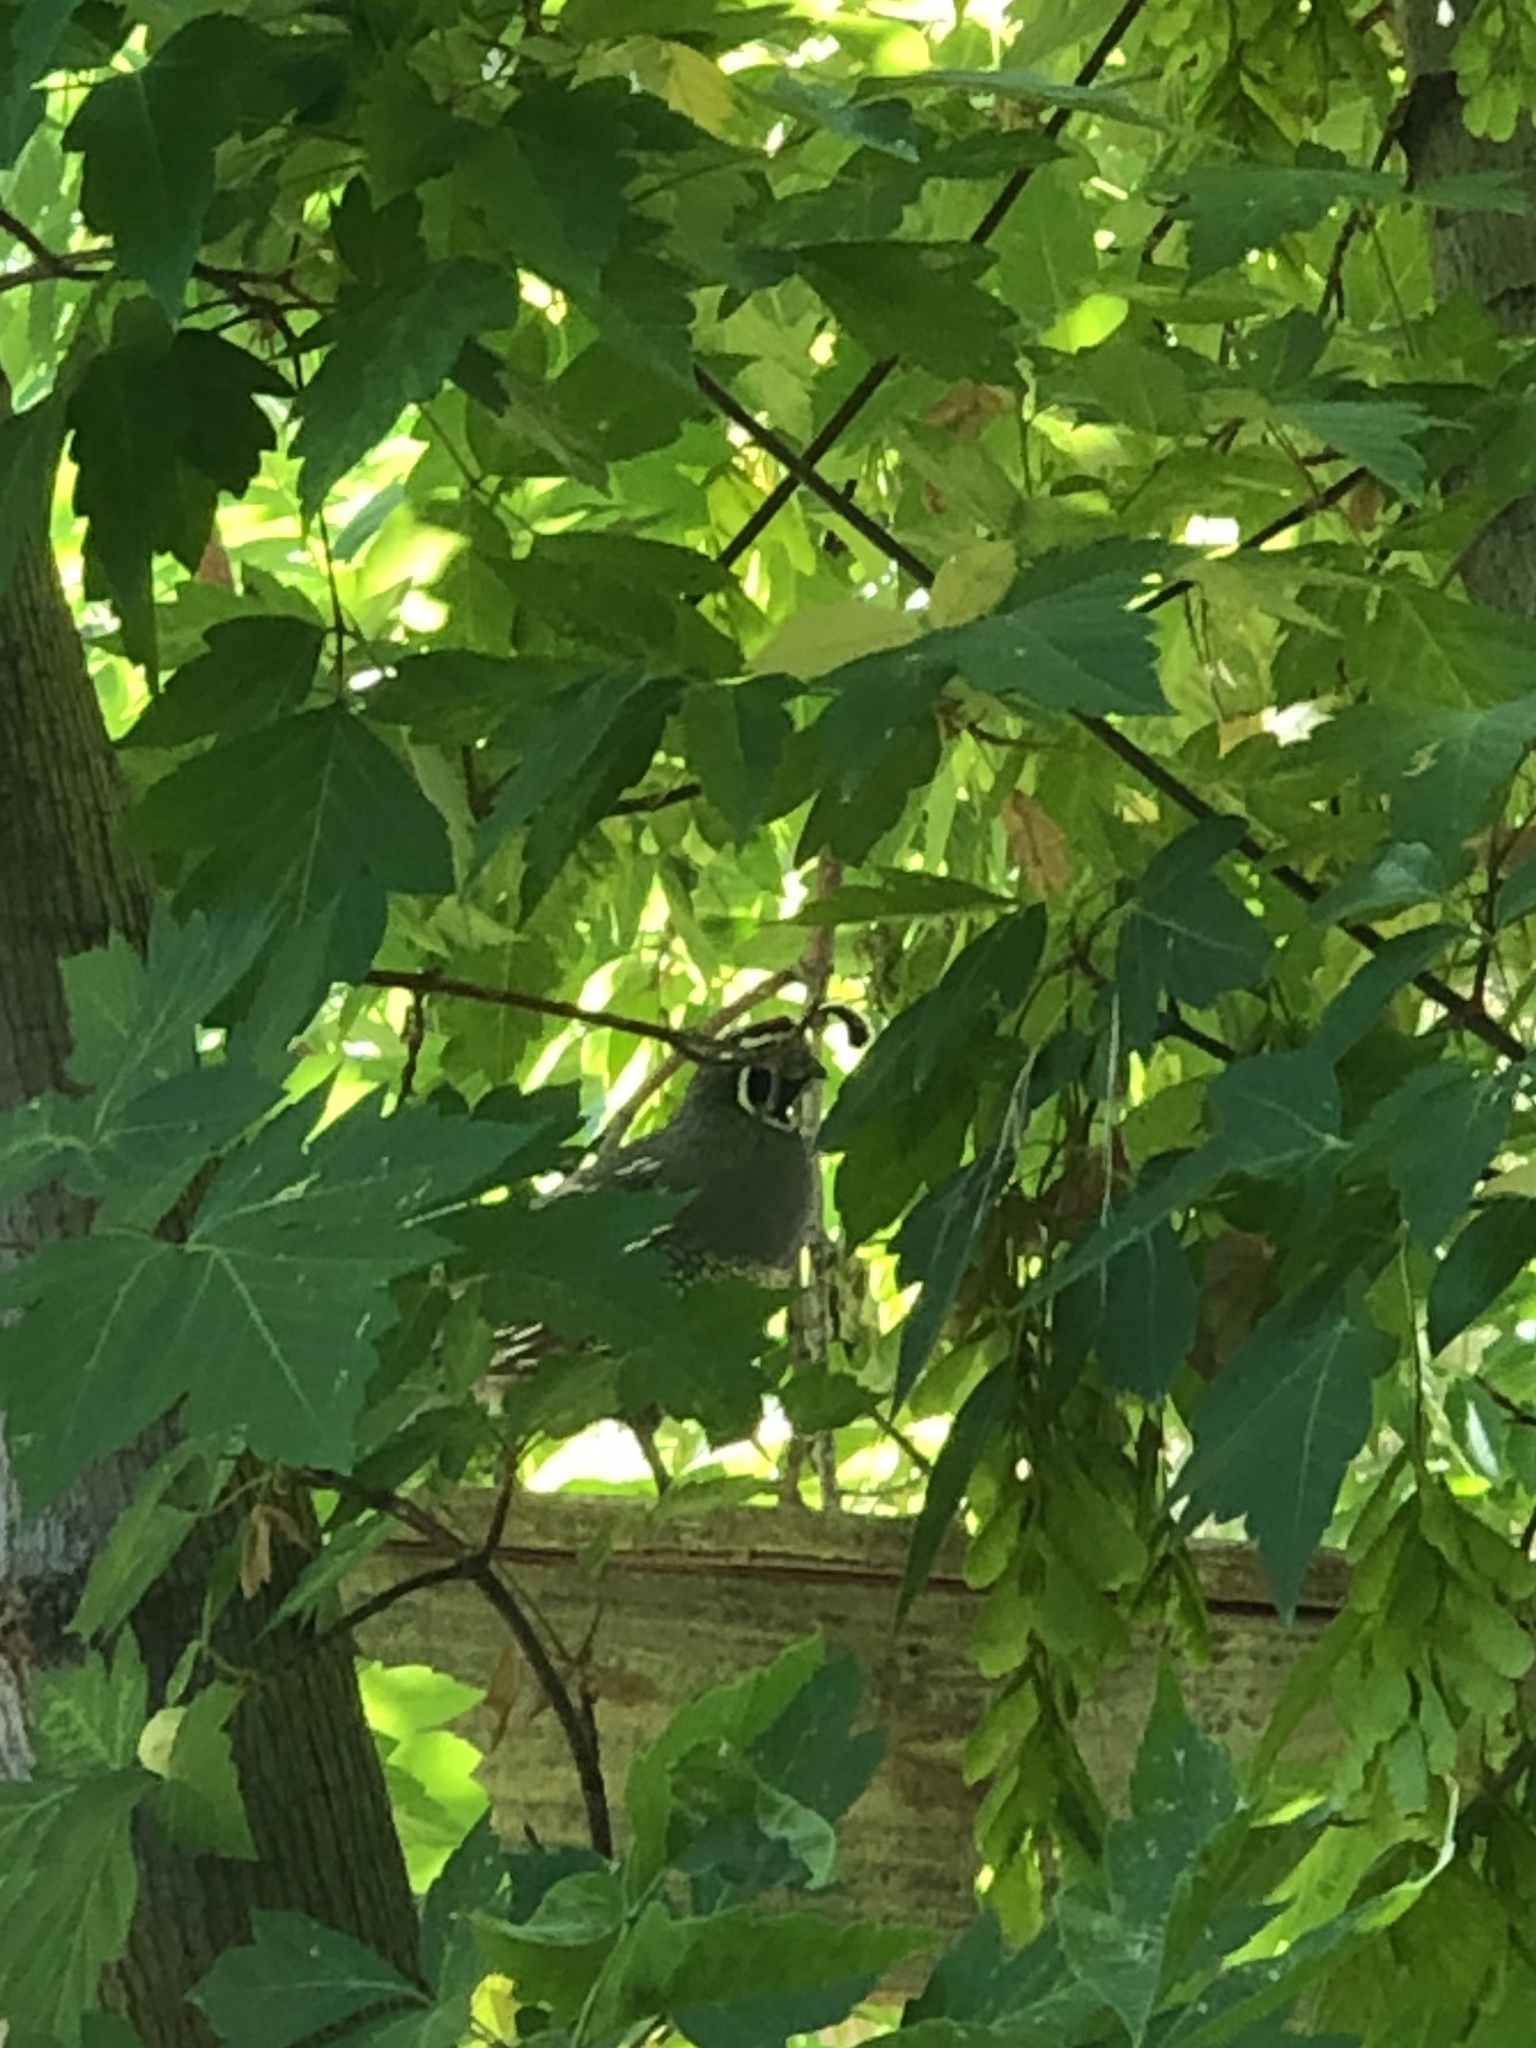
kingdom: Animalia
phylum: Chordata
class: Aves
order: Galliformes
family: Odontophoridae
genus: Callipepla
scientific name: Callipepla californica
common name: California quail
